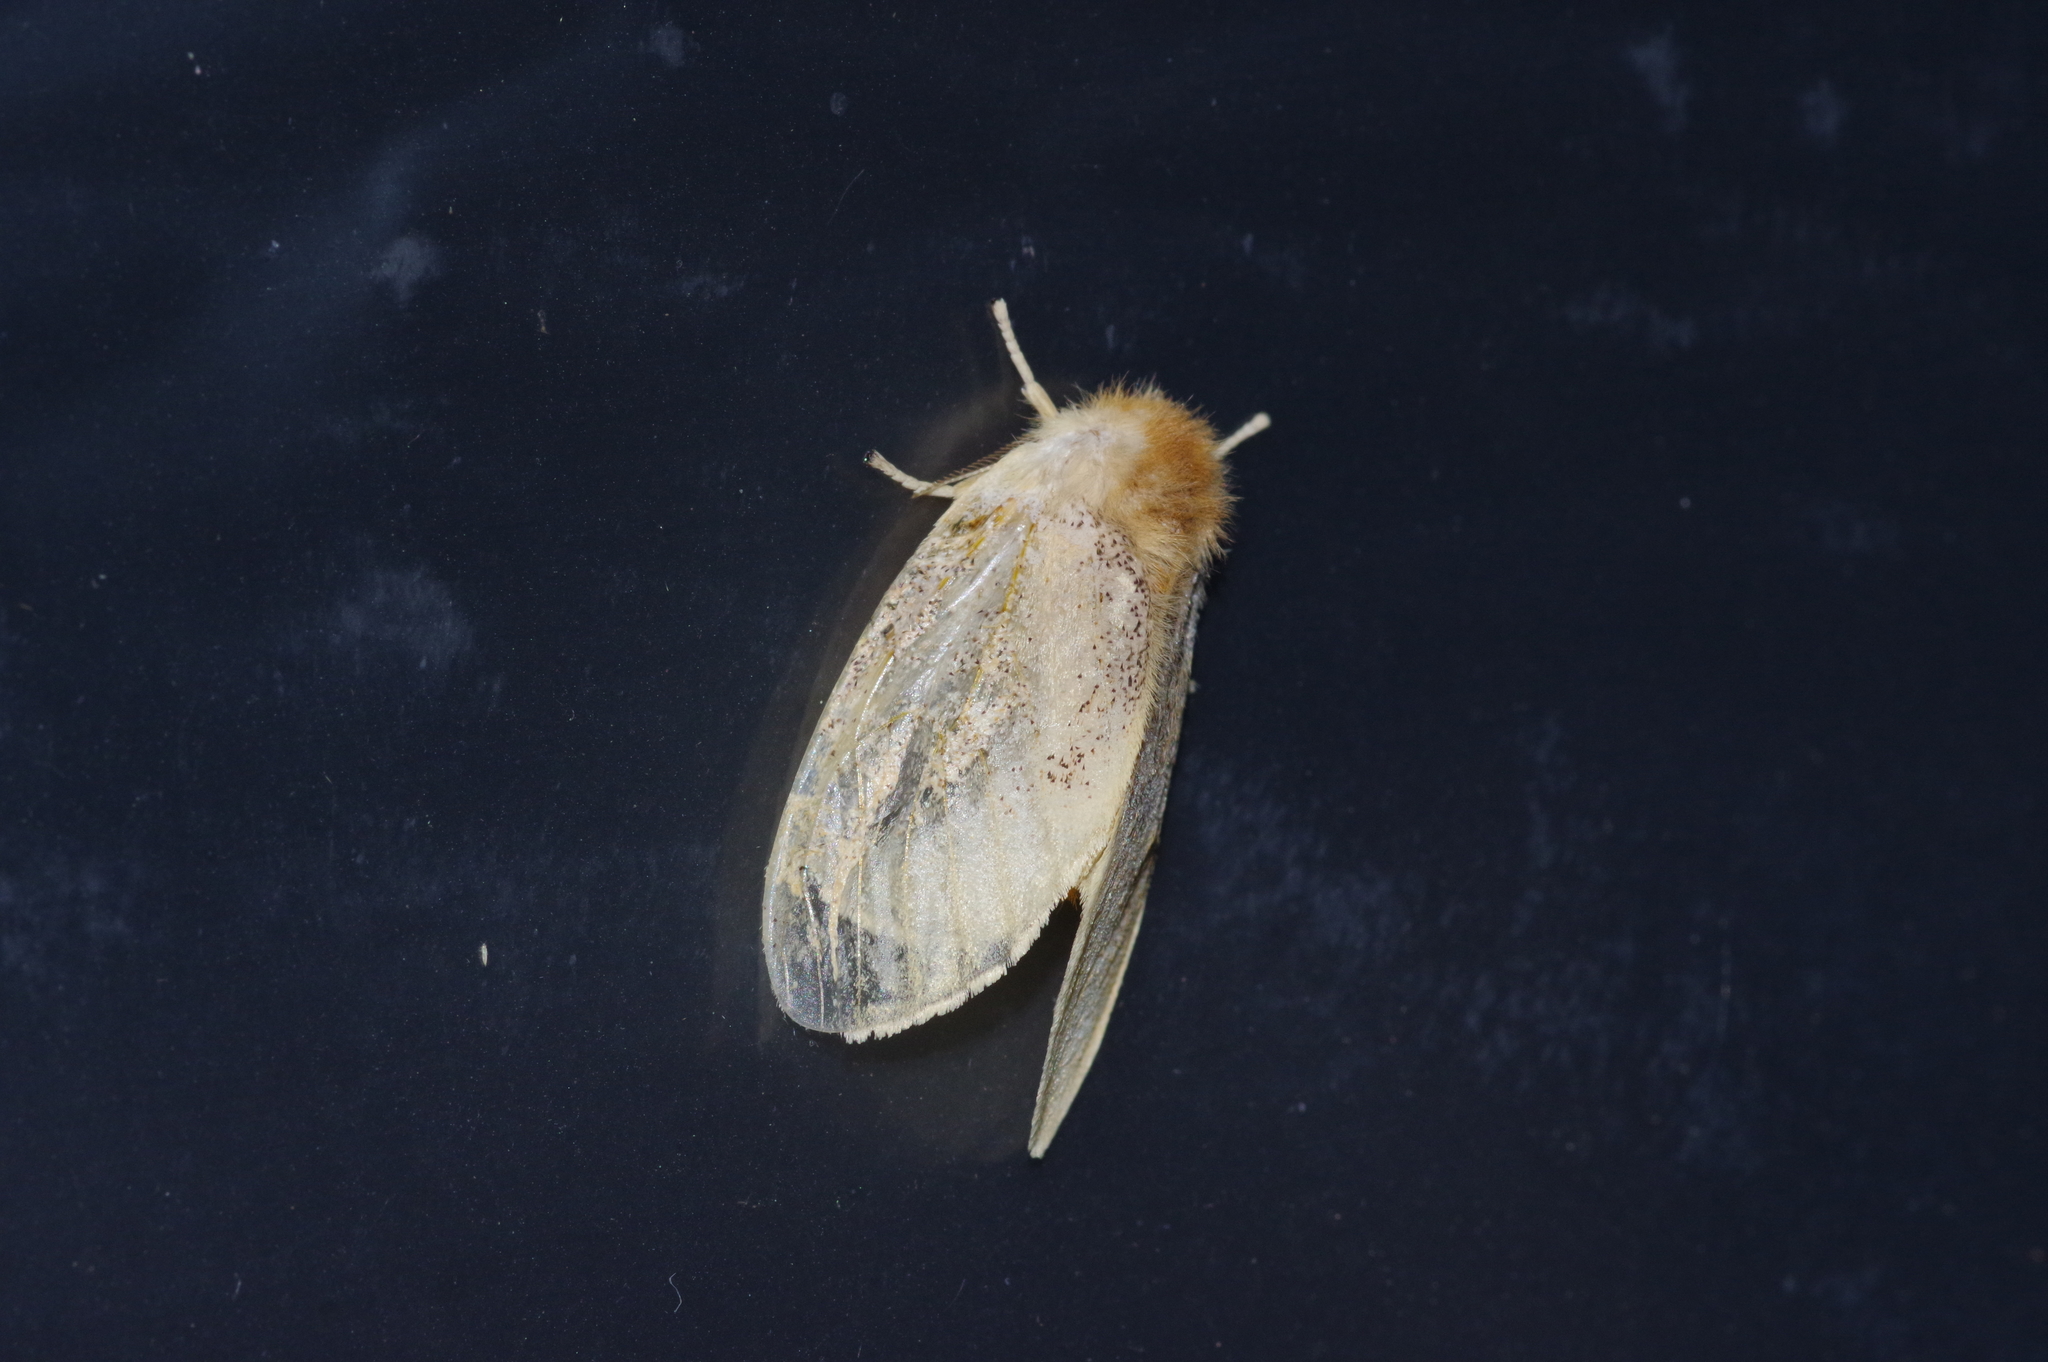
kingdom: Animalia
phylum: Arthropoda
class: Insecta
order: Lepidoptera
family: Erebidae
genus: Perina
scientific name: Perina nuda
